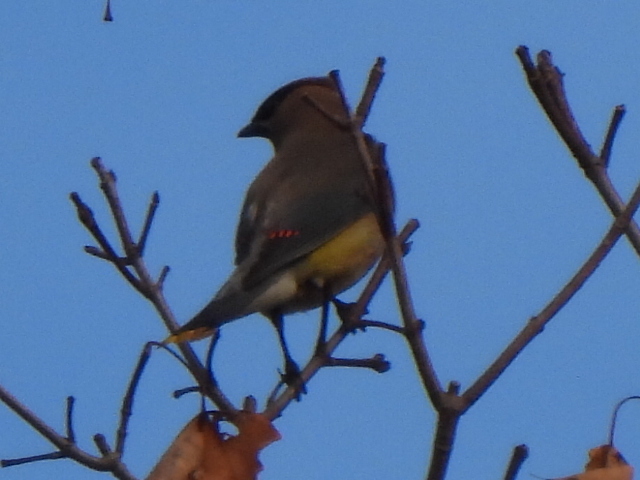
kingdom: Animalia
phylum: Chordata
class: Aves
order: Passeriformes
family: Bombycillidae
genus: Bombycilla
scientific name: Bombycilla cedrorum
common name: Cedar waxwing
